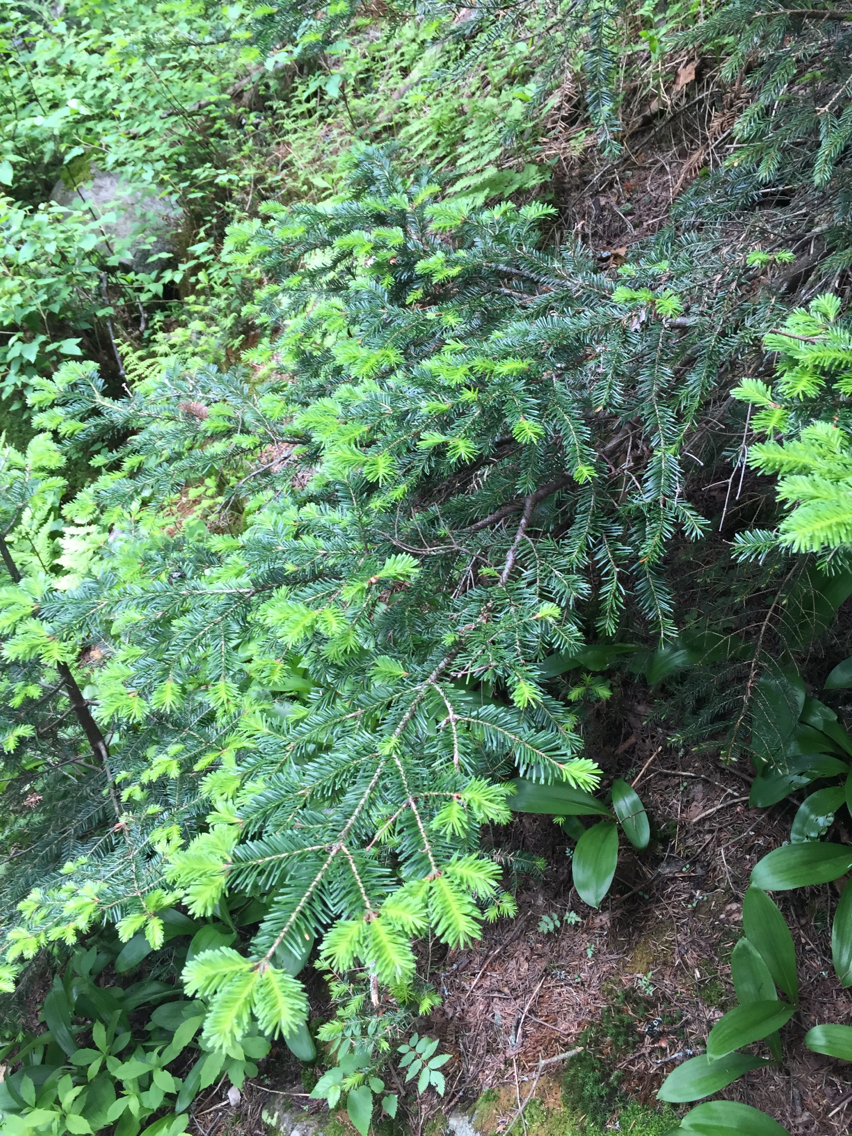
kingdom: Plantae
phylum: Tracheophyta
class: Pinopsida
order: Pinales
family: Pinaceae
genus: Abies
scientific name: Abies balsamea
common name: Balsam fir
